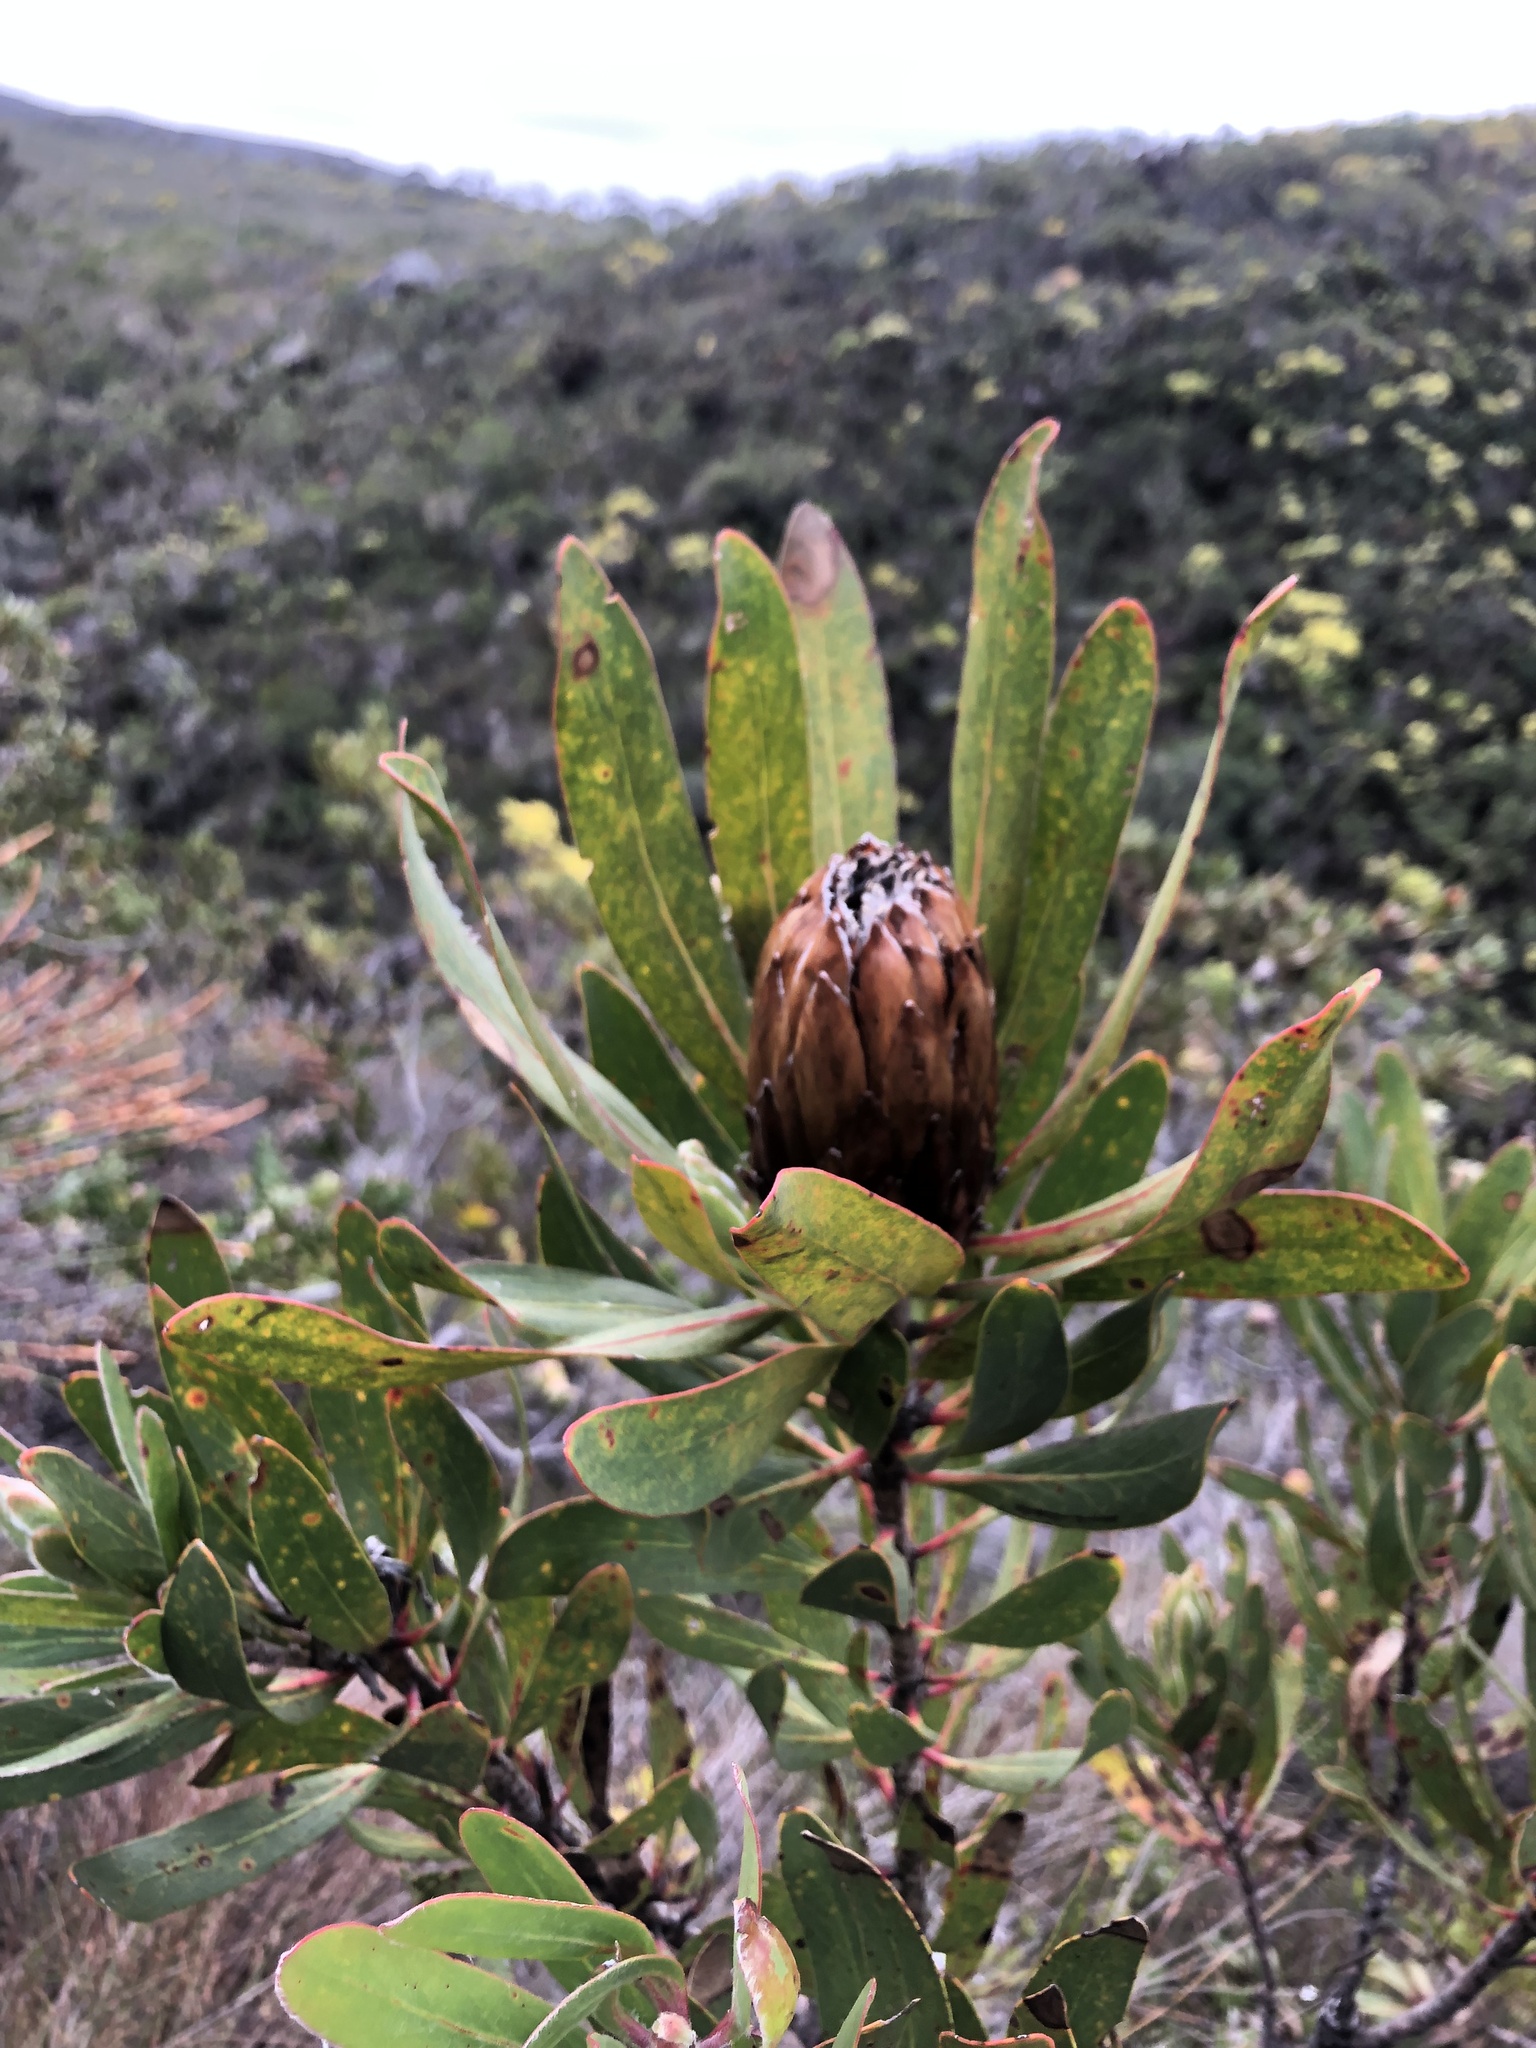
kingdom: Plantae
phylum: Tracheophyta
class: Magnoliopsida
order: Proteales
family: Proteaceae
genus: Protea
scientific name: Protea obtusifolia
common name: Bredasdorp sugarbush
